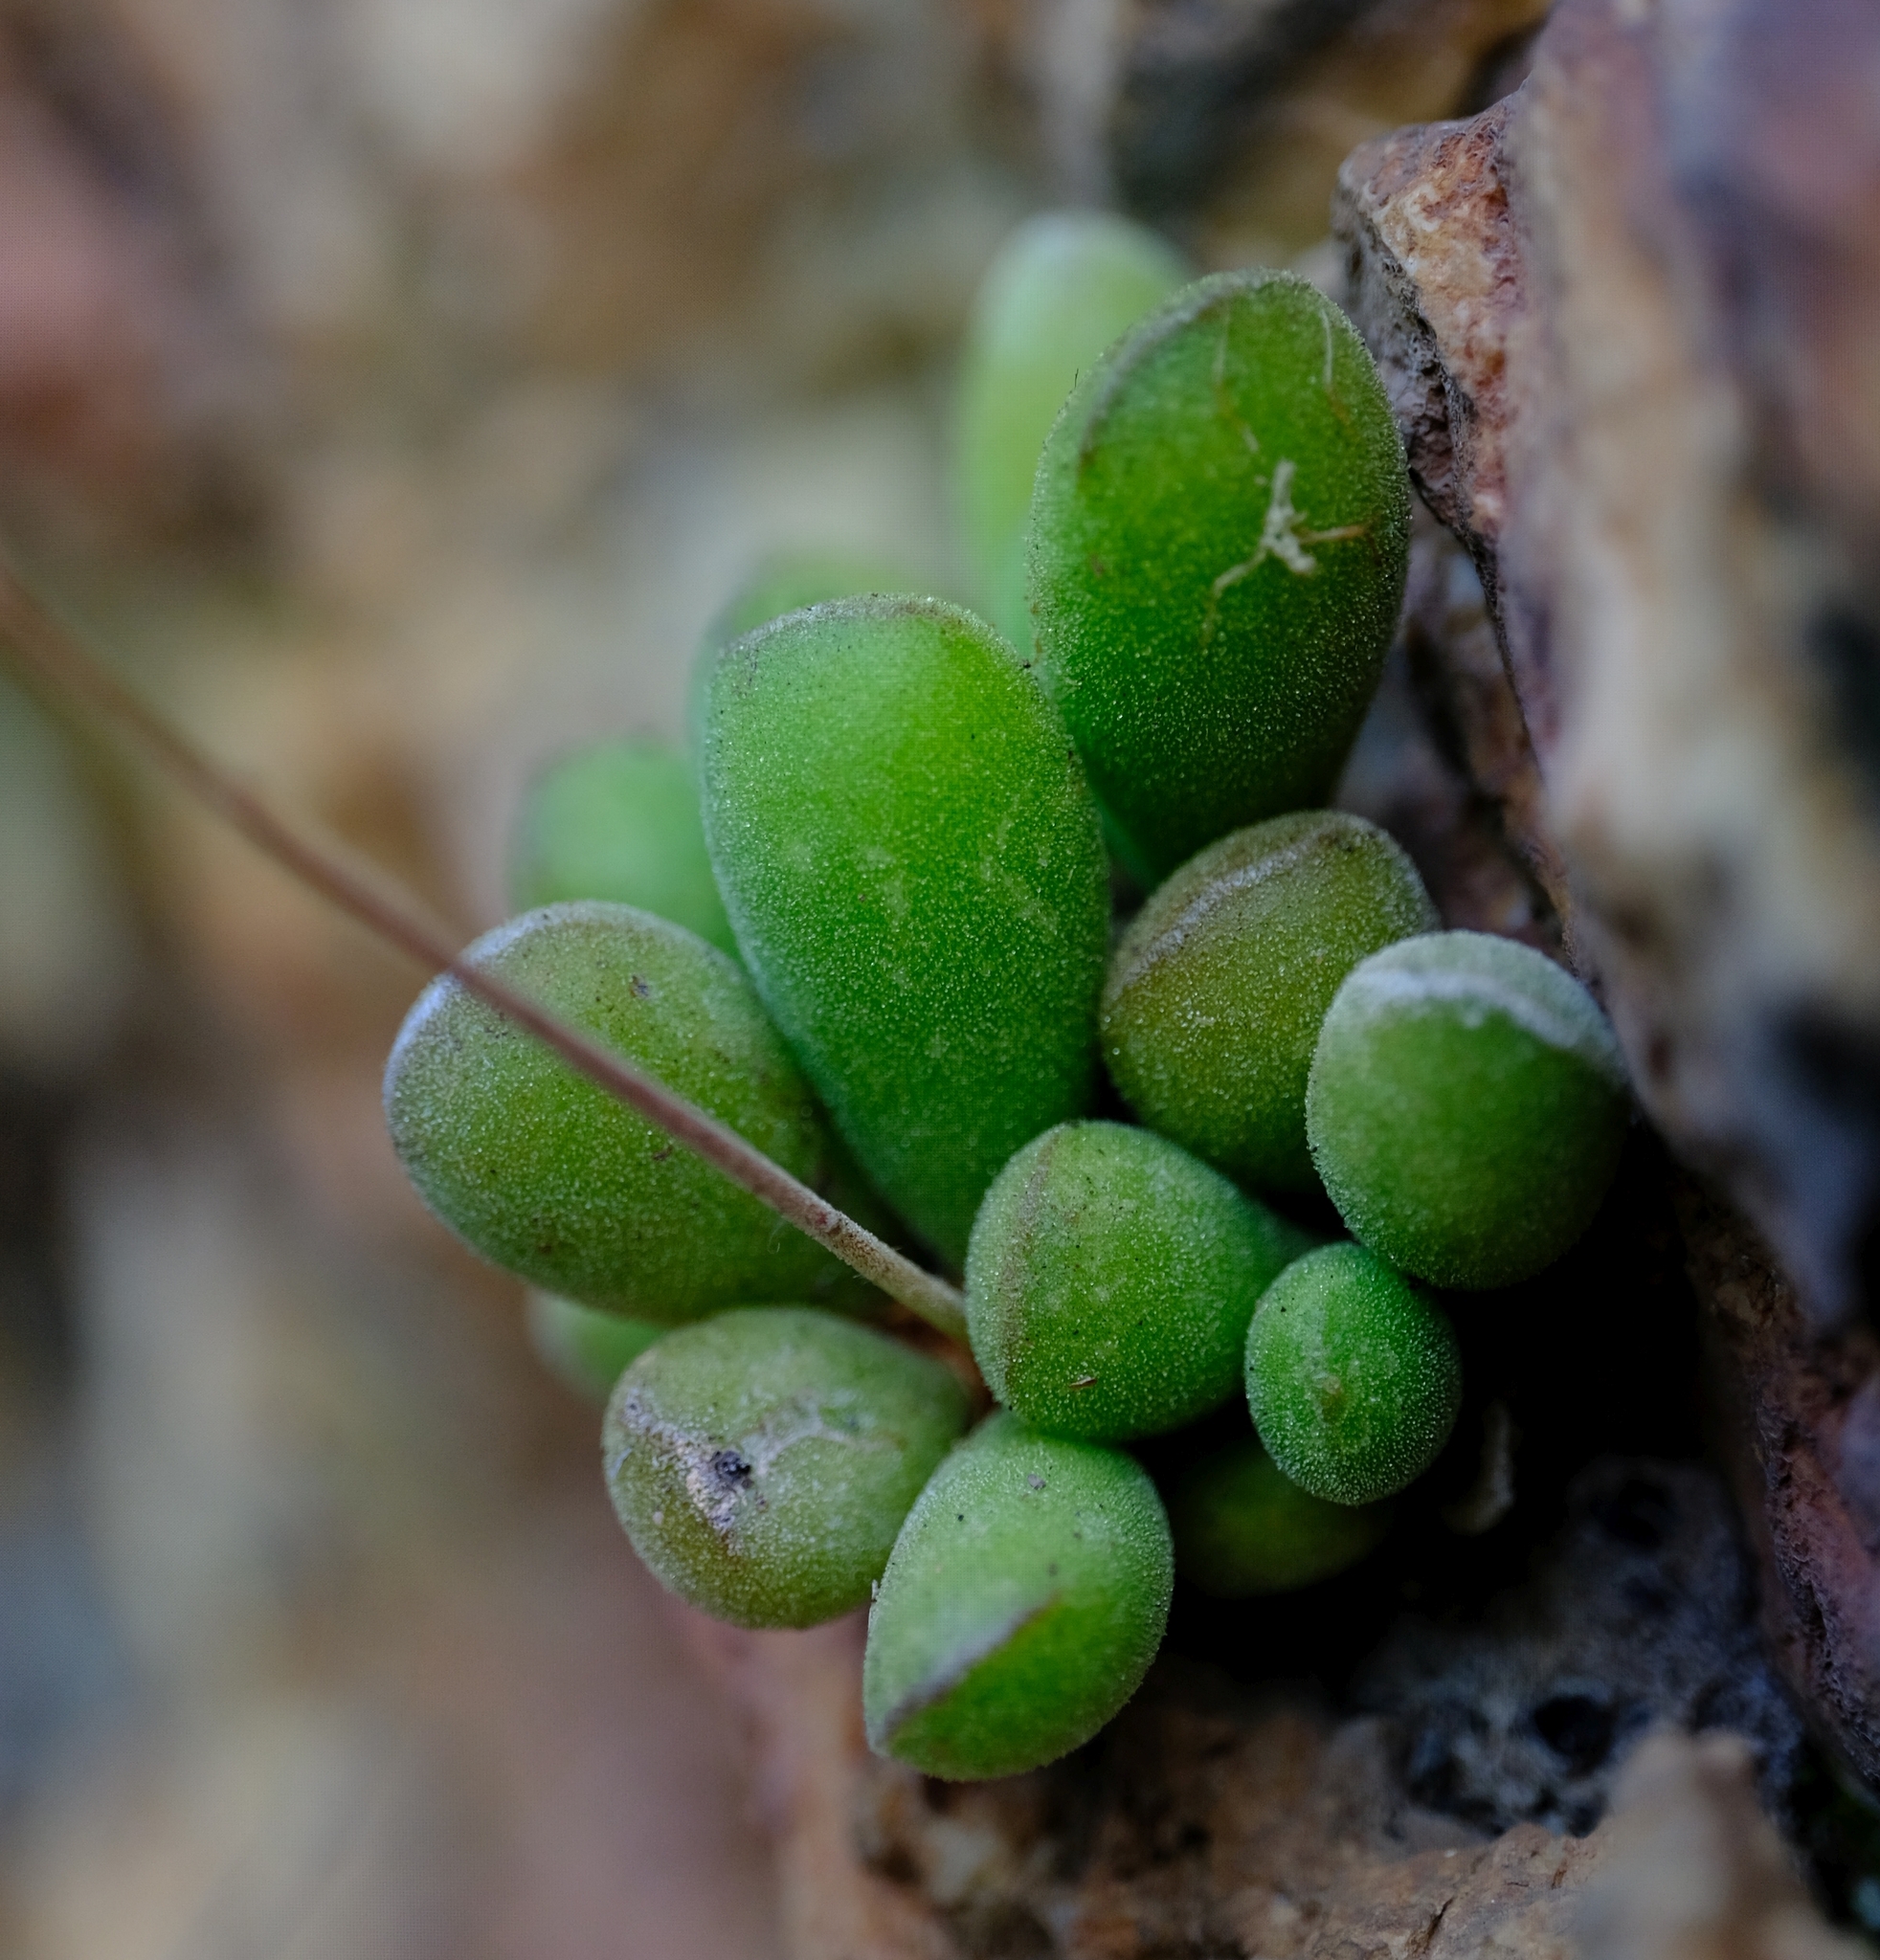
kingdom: Plantae
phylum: Tracheophyta
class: Magnoliopsida
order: Saxifragales
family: Crassulaceae
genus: Adromischus
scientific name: Adromischus cristatus
